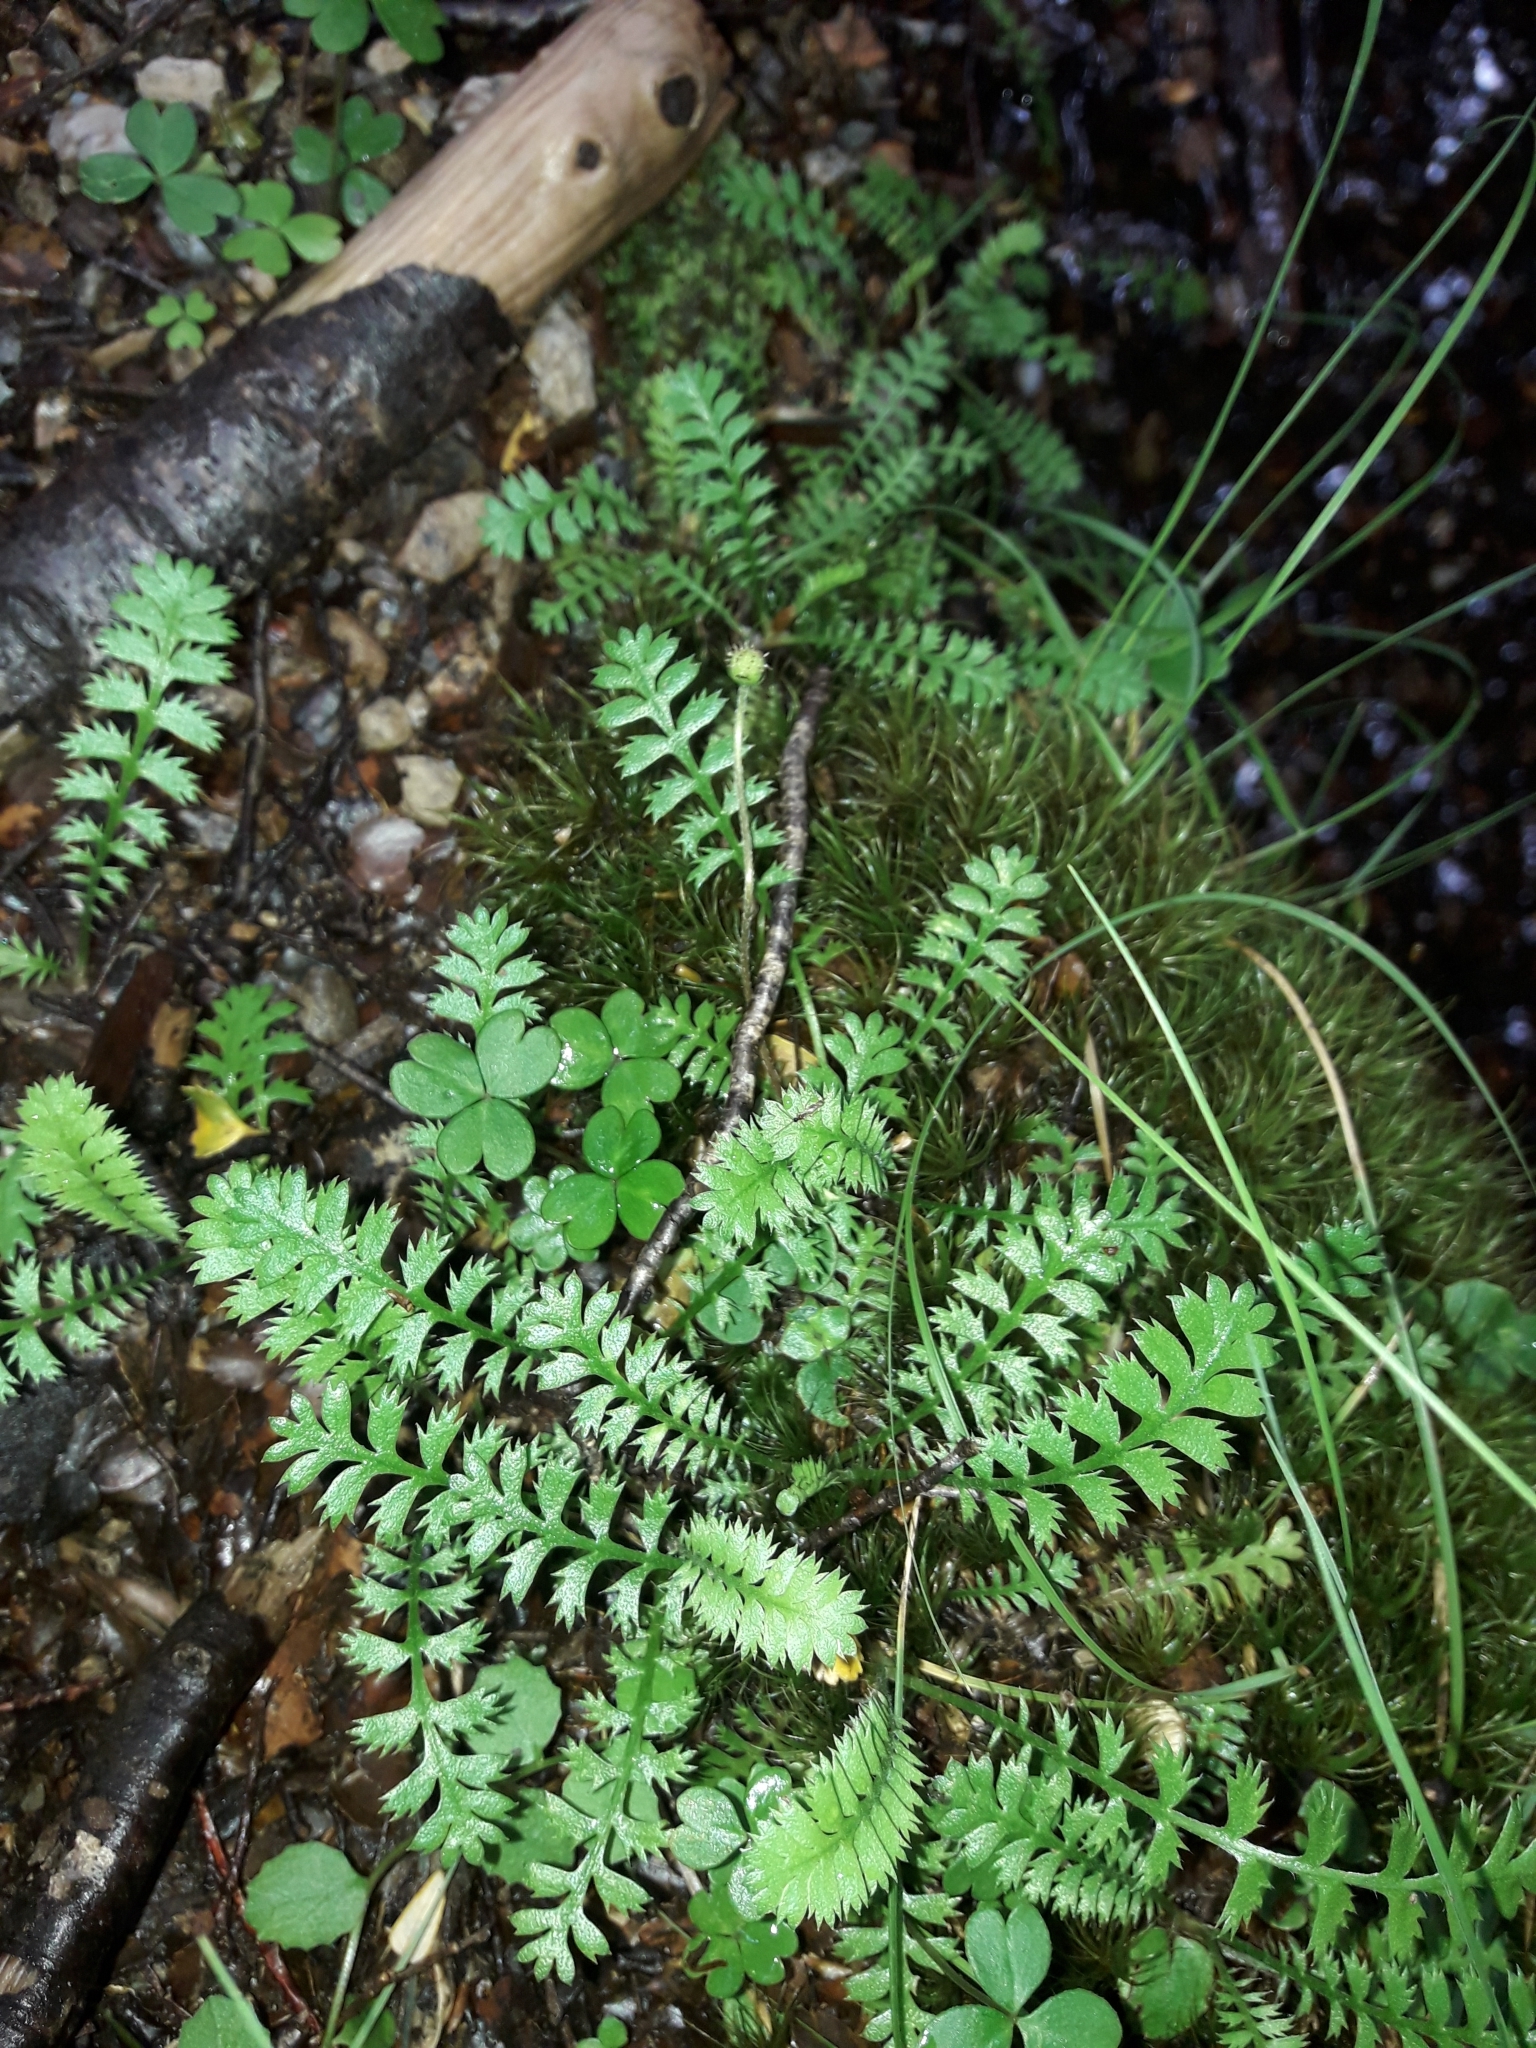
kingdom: Plantae
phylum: Tracheophyta
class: Magnoliopsida
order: Asterales
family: Asteraceae
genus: Leptinella
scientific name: Leptinella squalida
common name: New zealand brass-buttons
